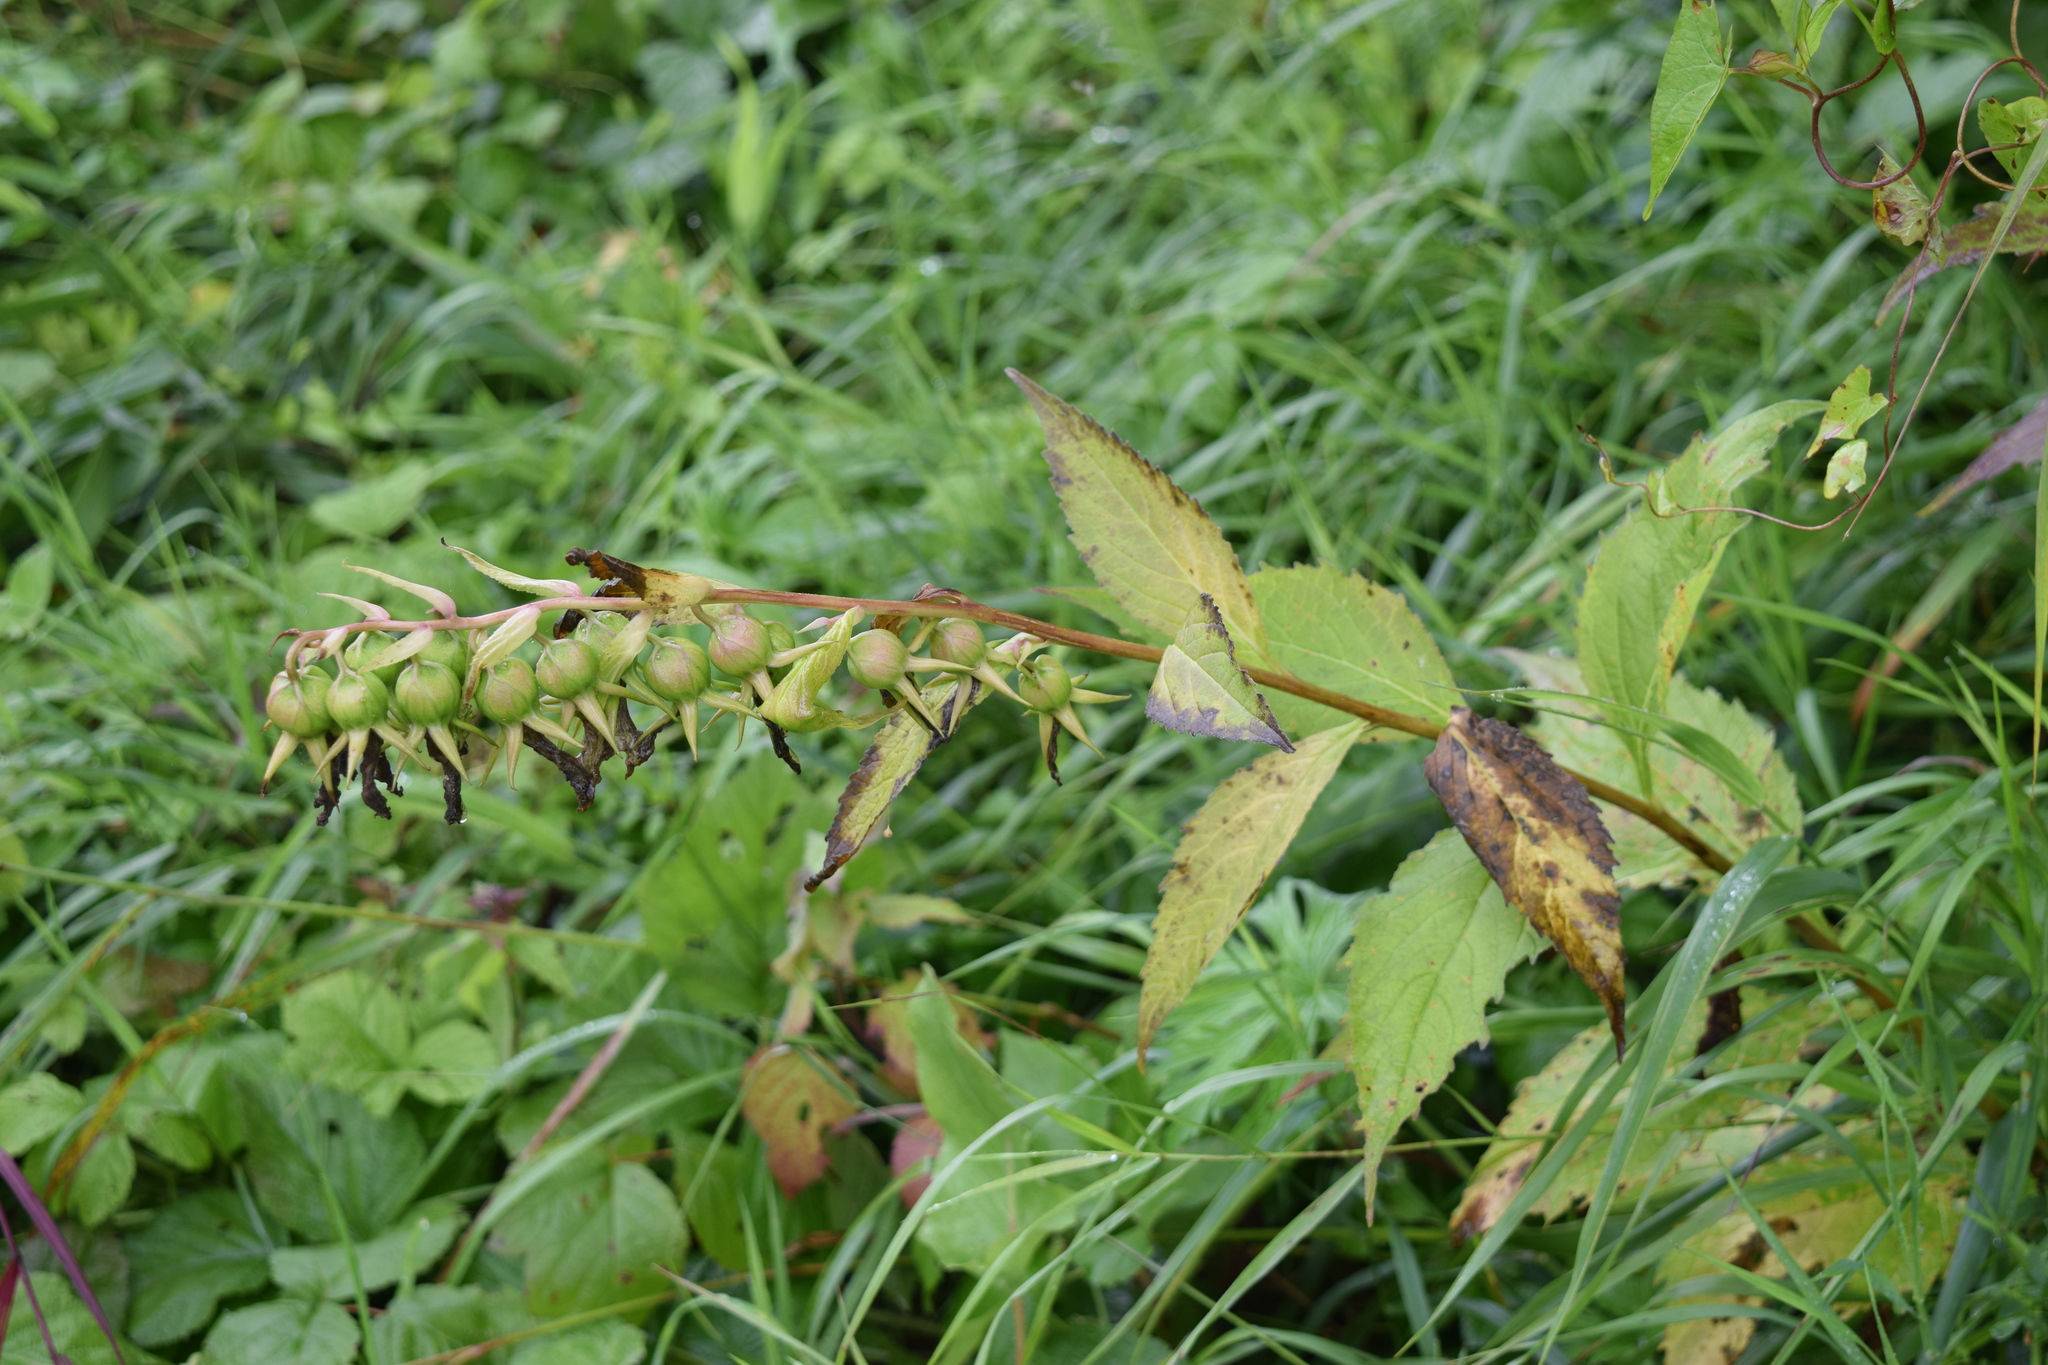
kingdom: Plantae
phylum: Tracheophyta
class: Magnoliopsida
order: Asterales
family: Campanulaceae
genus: Campanula
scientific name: Campanula latifolia
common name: Giant bellflower
